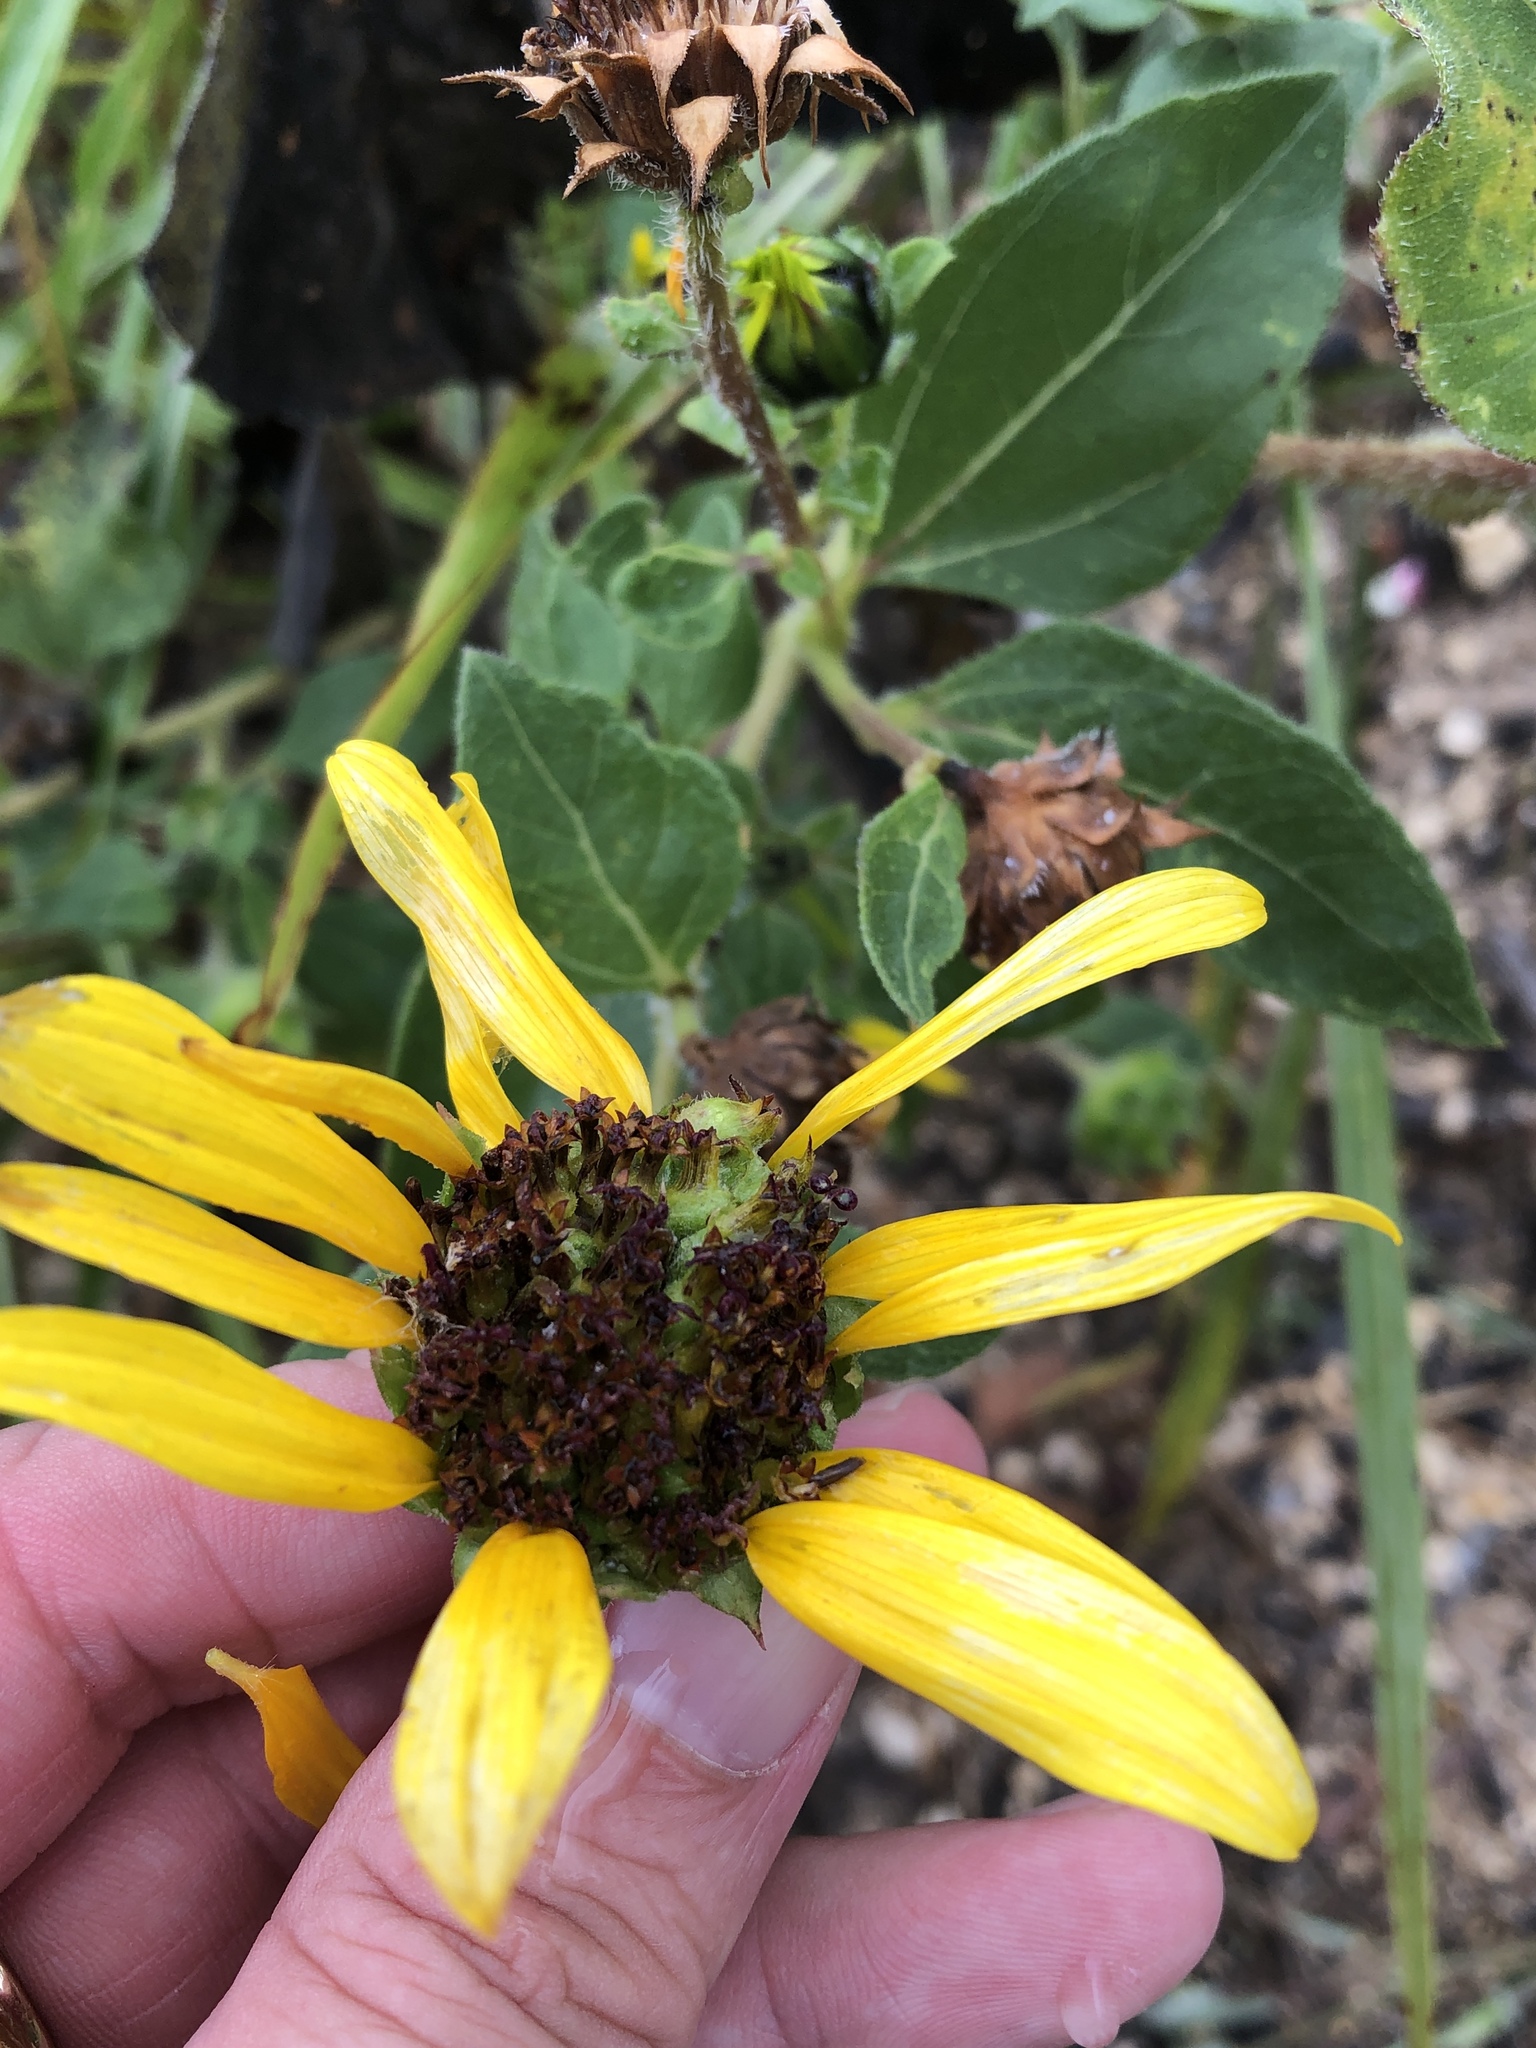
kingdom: Plantae
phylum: Tracheophyta
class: Magnoliopsida
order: Asterales
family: Asteraceae
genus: Helianthus
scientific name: Helianthus annuus
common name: Sunflower
